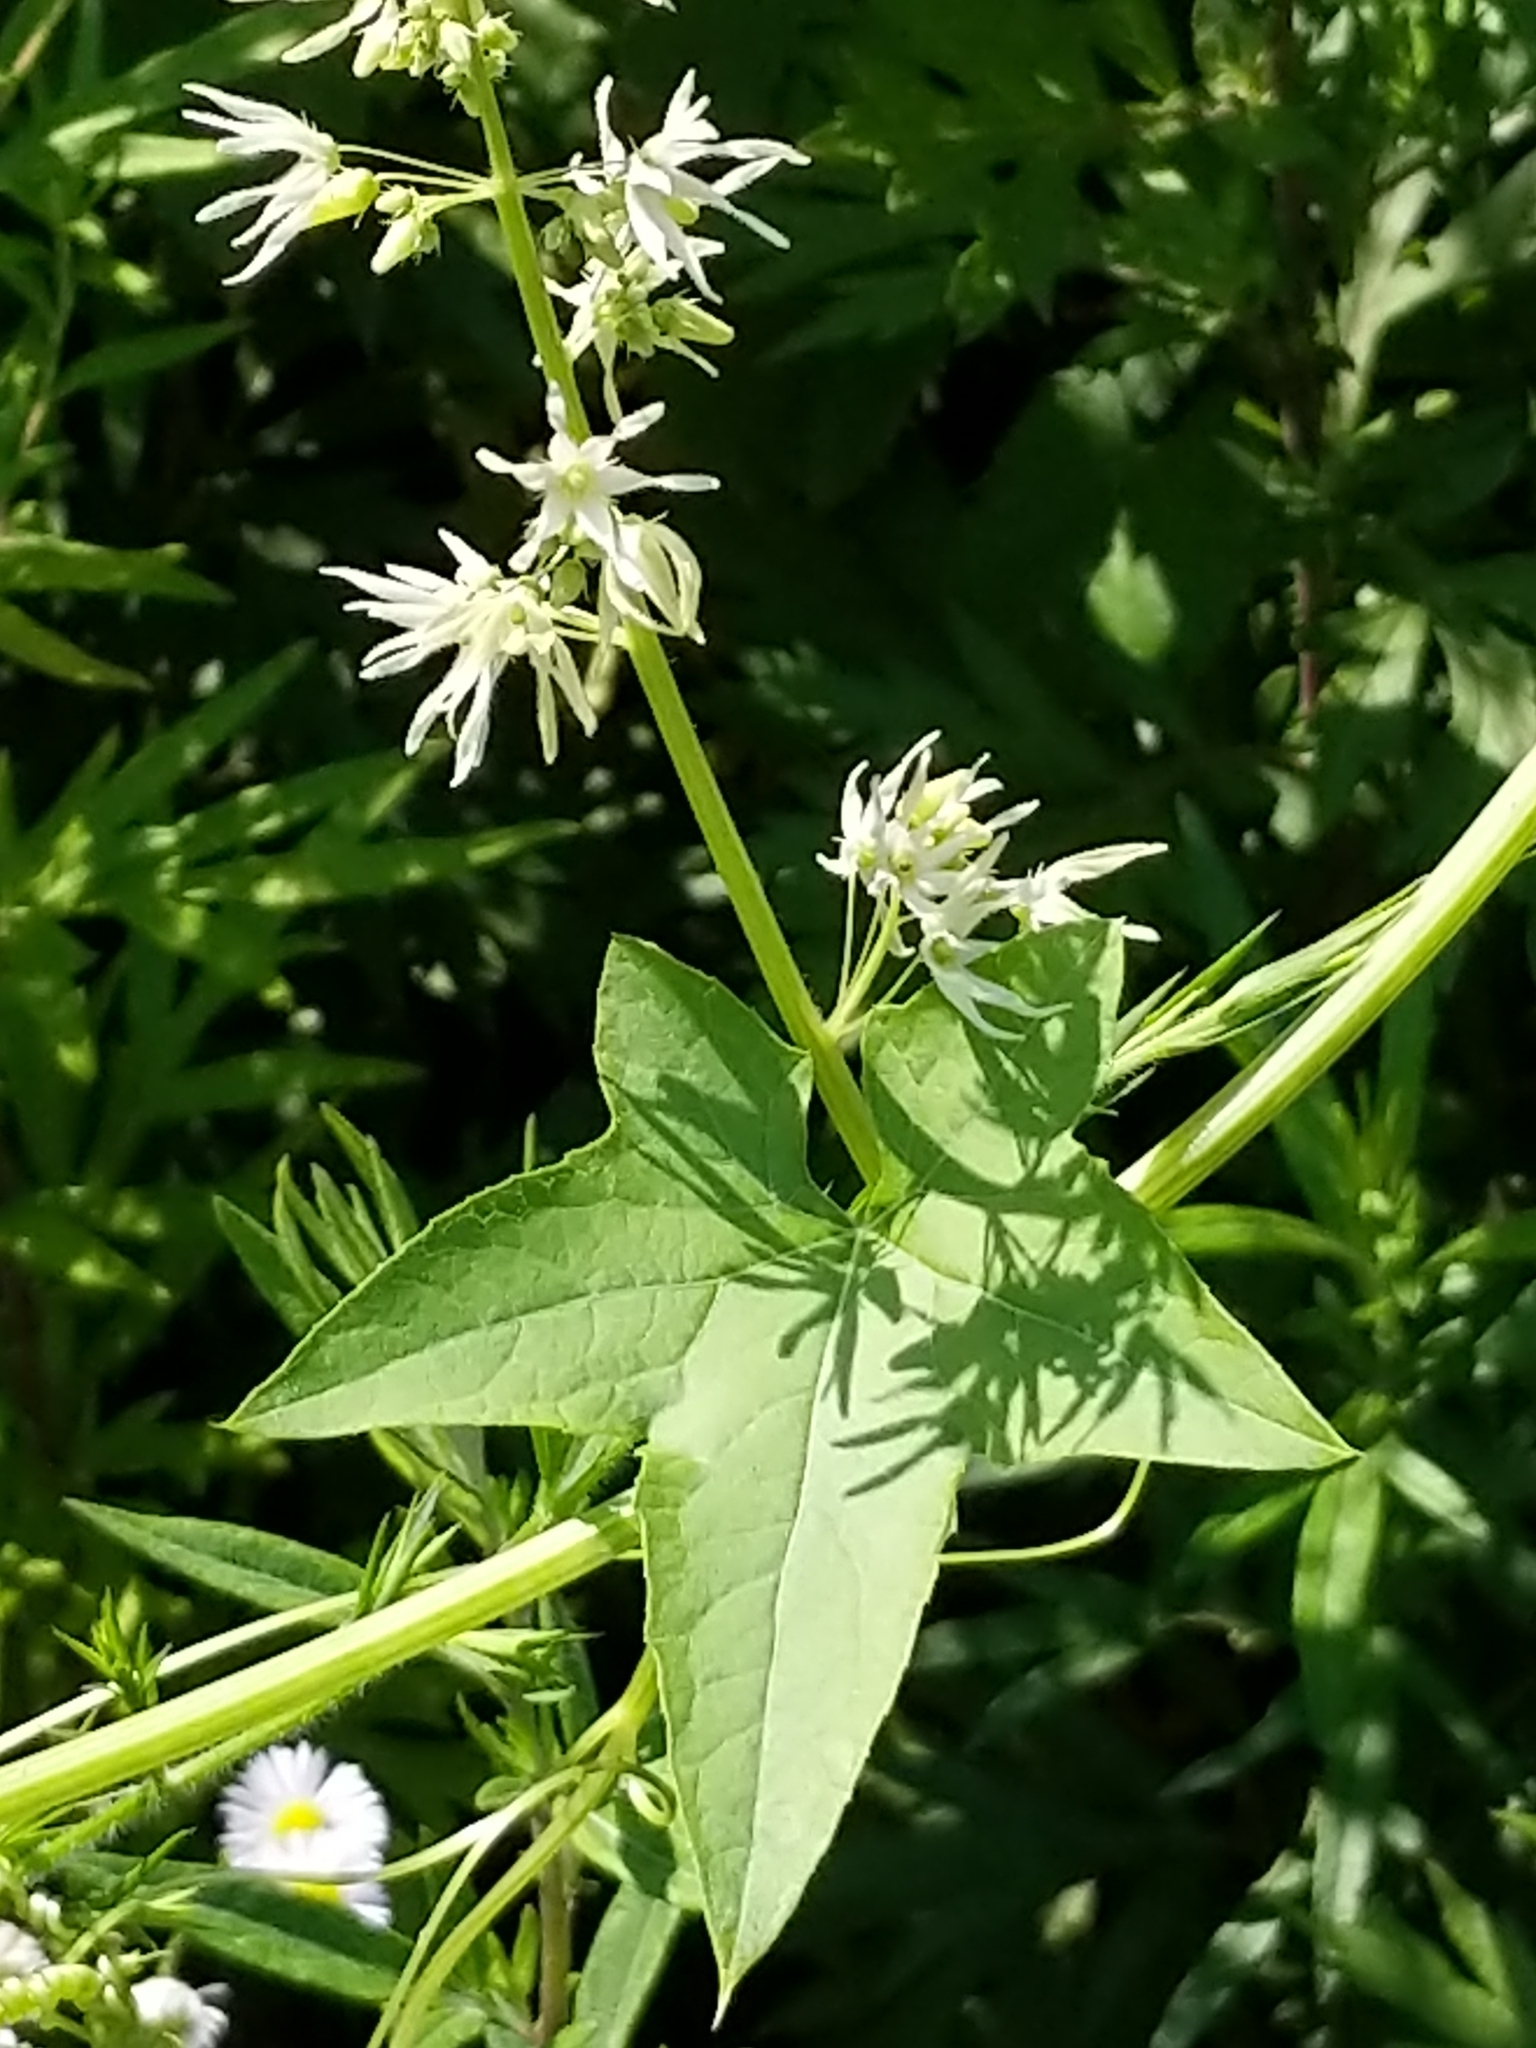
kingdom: Plantae
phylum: Tracheophyta
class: Magnoliopsida
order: Cucurbitales
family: Cucurbitaceae
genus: Echinocystis
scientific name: Echinocystis lobata
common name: Wild cucumber
